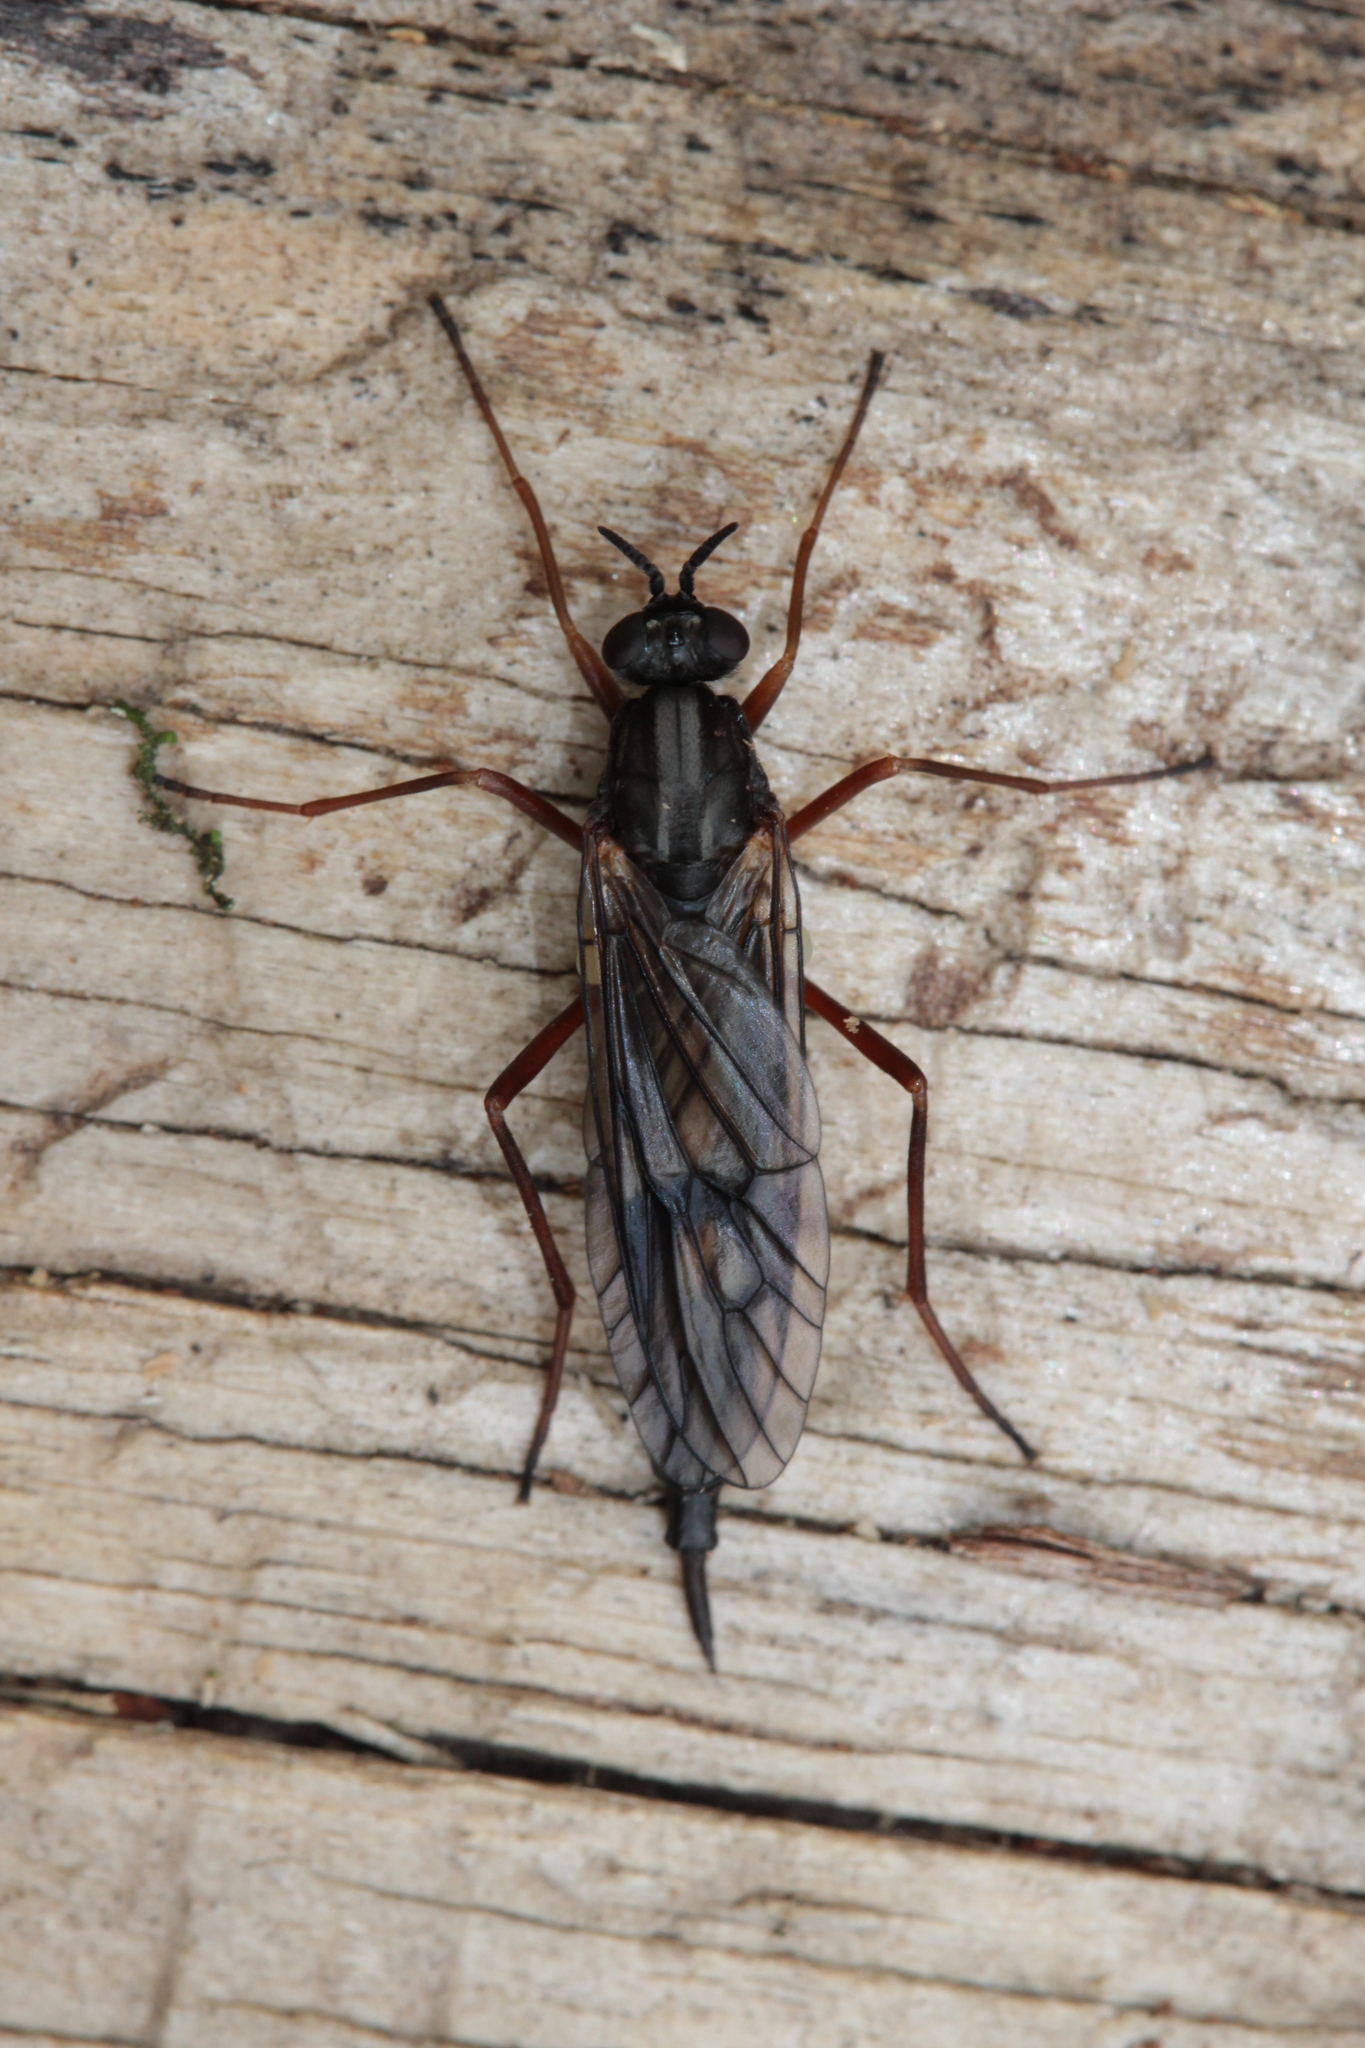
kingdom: Animalia
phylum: Arthropoda
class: Insecta
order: Diptera
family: Xylophagidae
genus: Xylophagus
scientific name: Xylophagus cinctus
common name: Red-belted awl-fly
